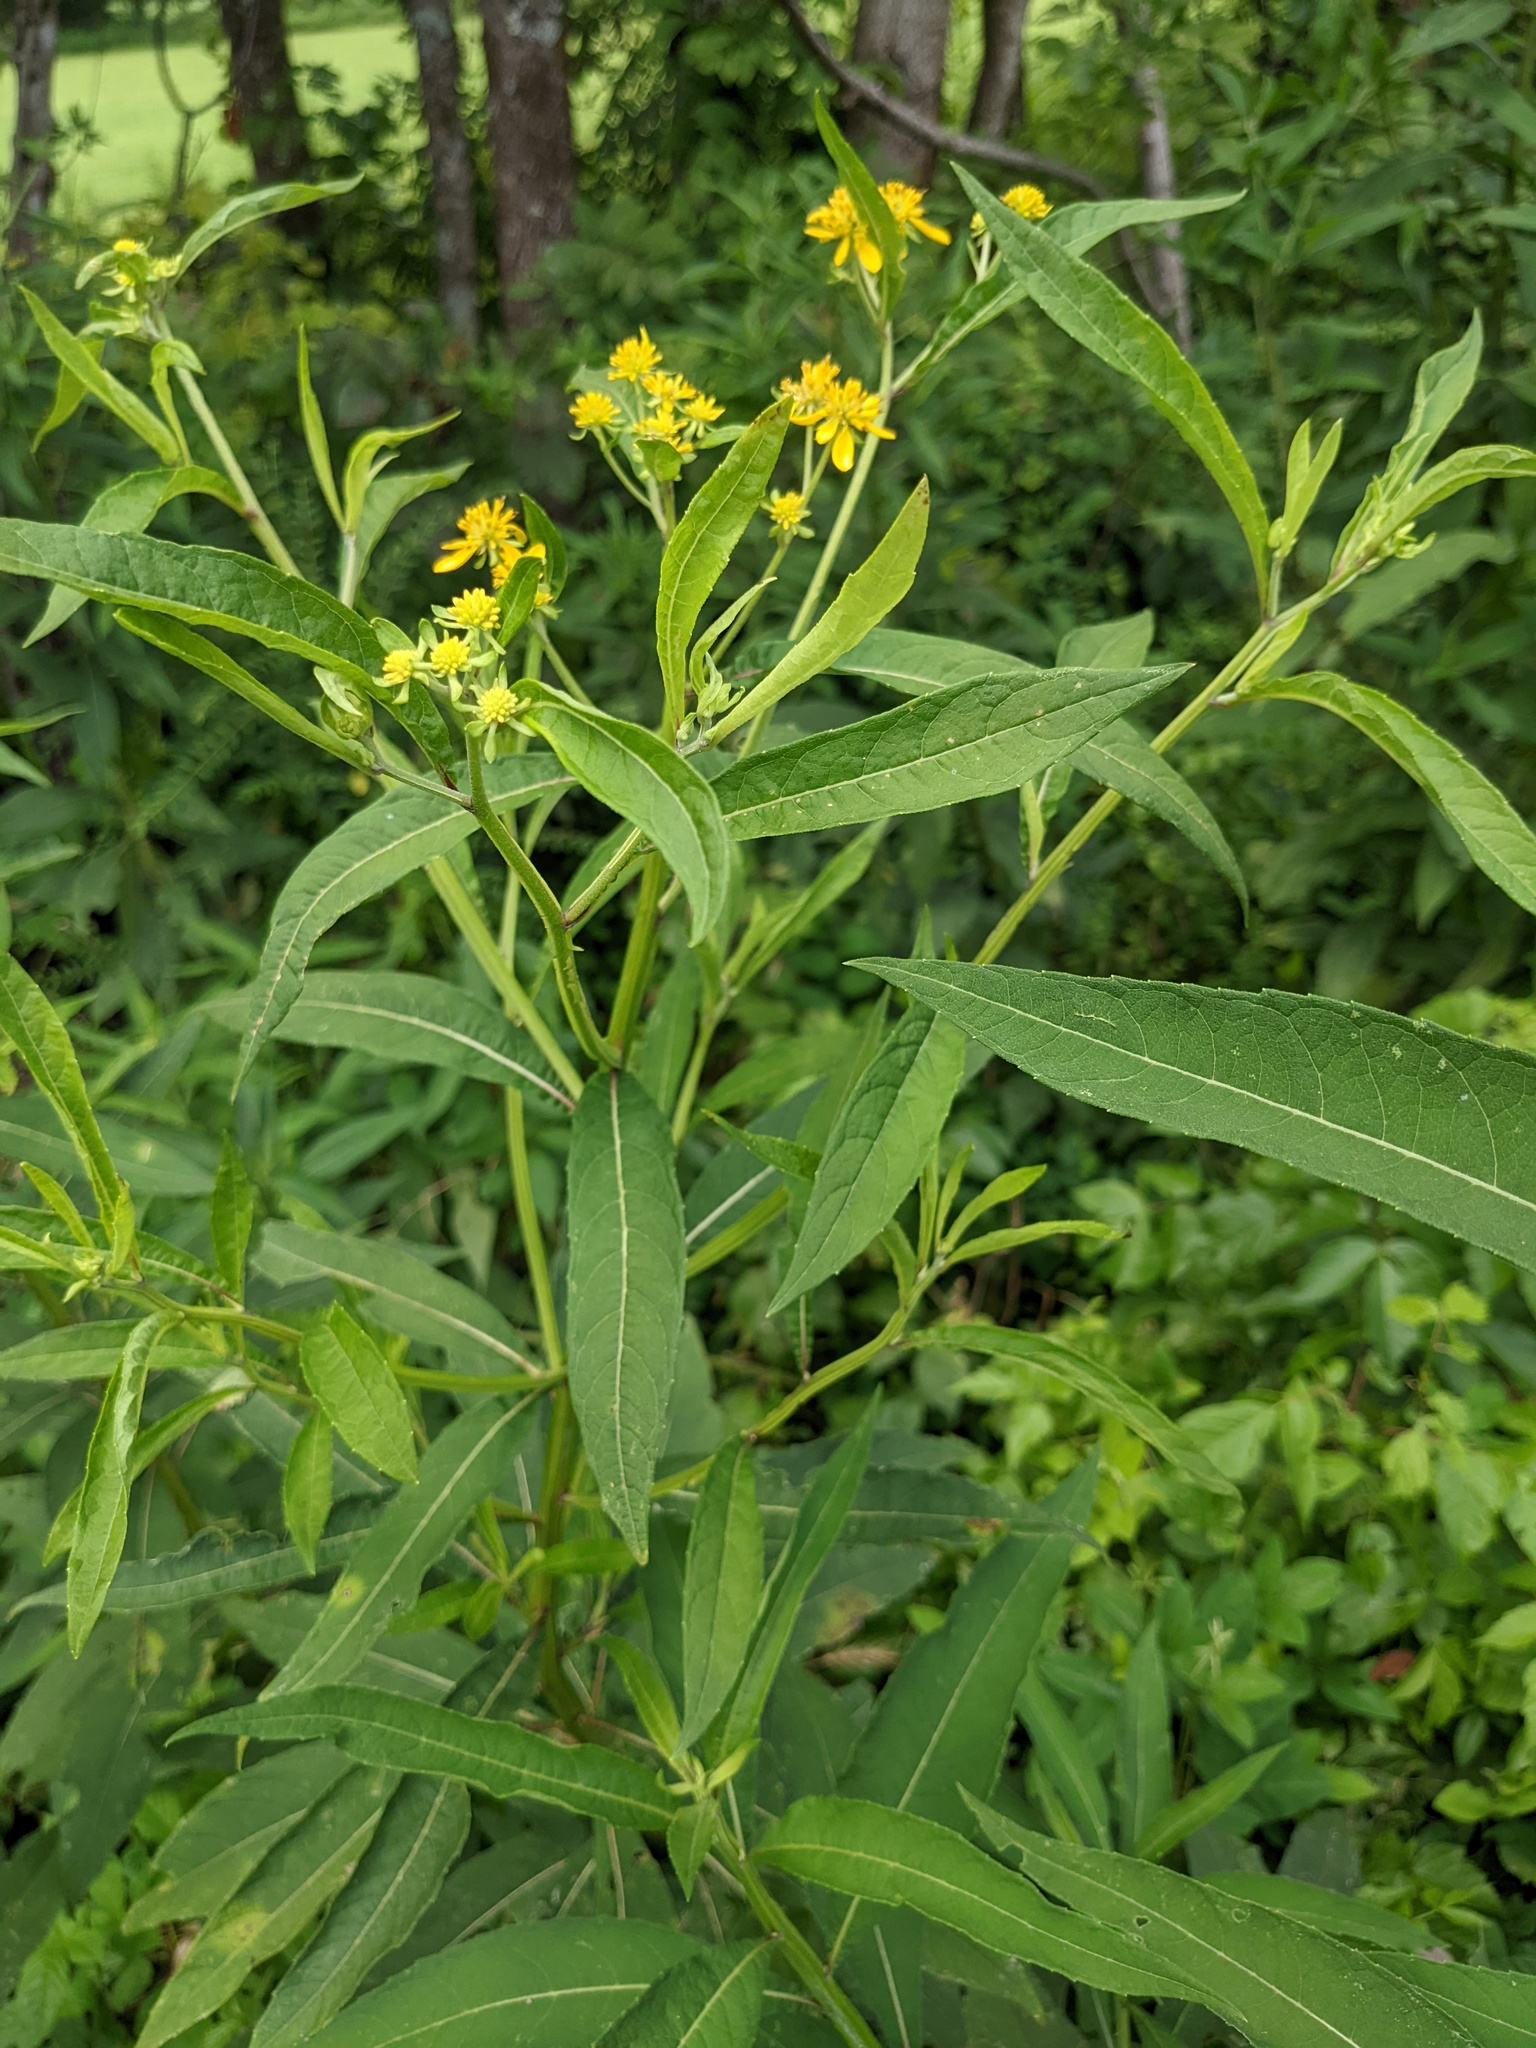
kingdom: Plantae
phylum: Tracheophyta
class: Magnoliopsida
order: Asterales
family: Asteraceae
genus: Verbesina
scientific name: Verbesina alternifolia
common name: Wingstem
